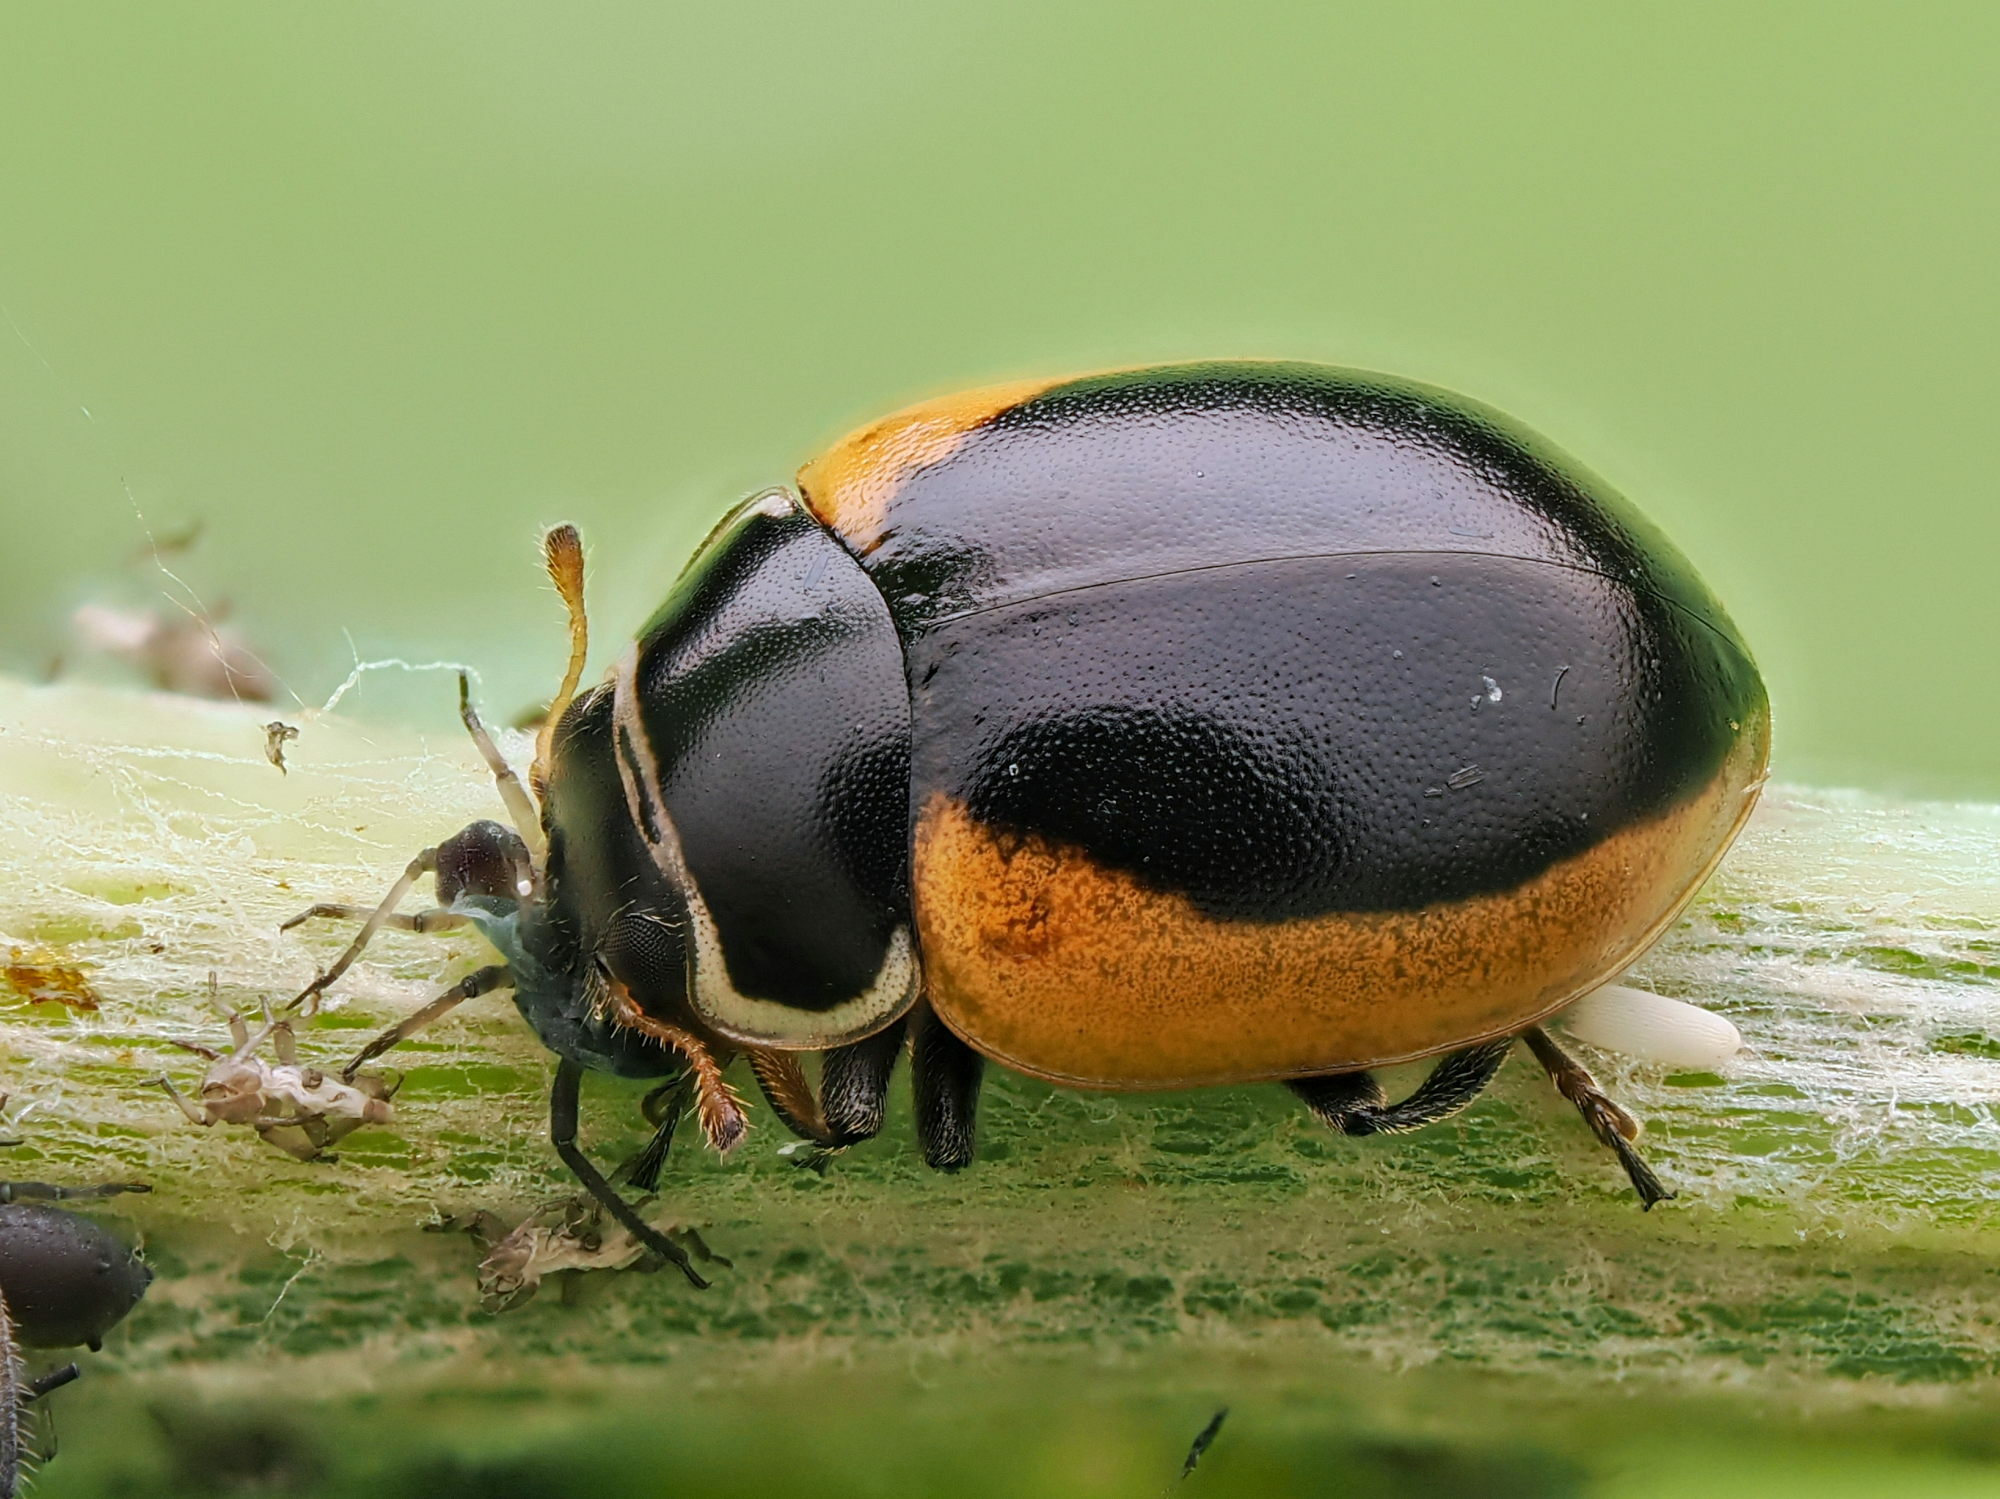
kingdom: Animalia
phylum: Arthropoda
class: Insecta
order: Coleoptera
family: Coccinellidae
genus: Ceratomegilla
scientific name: Ceratomegilla Semiadalia rufocincta
